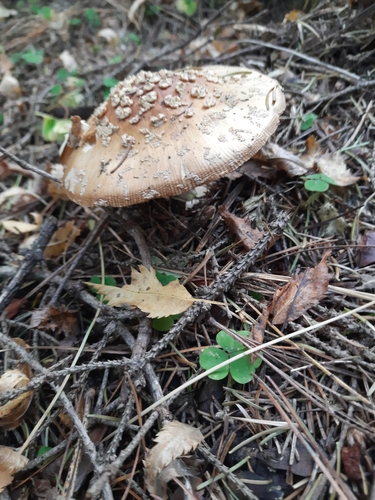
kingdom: Fungi
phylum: Basidiomycota
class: Agaricomycetes
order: Agaricales
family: Amanitaceae
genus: Amanita
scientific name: Amanita pantherina
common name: Panthercap
